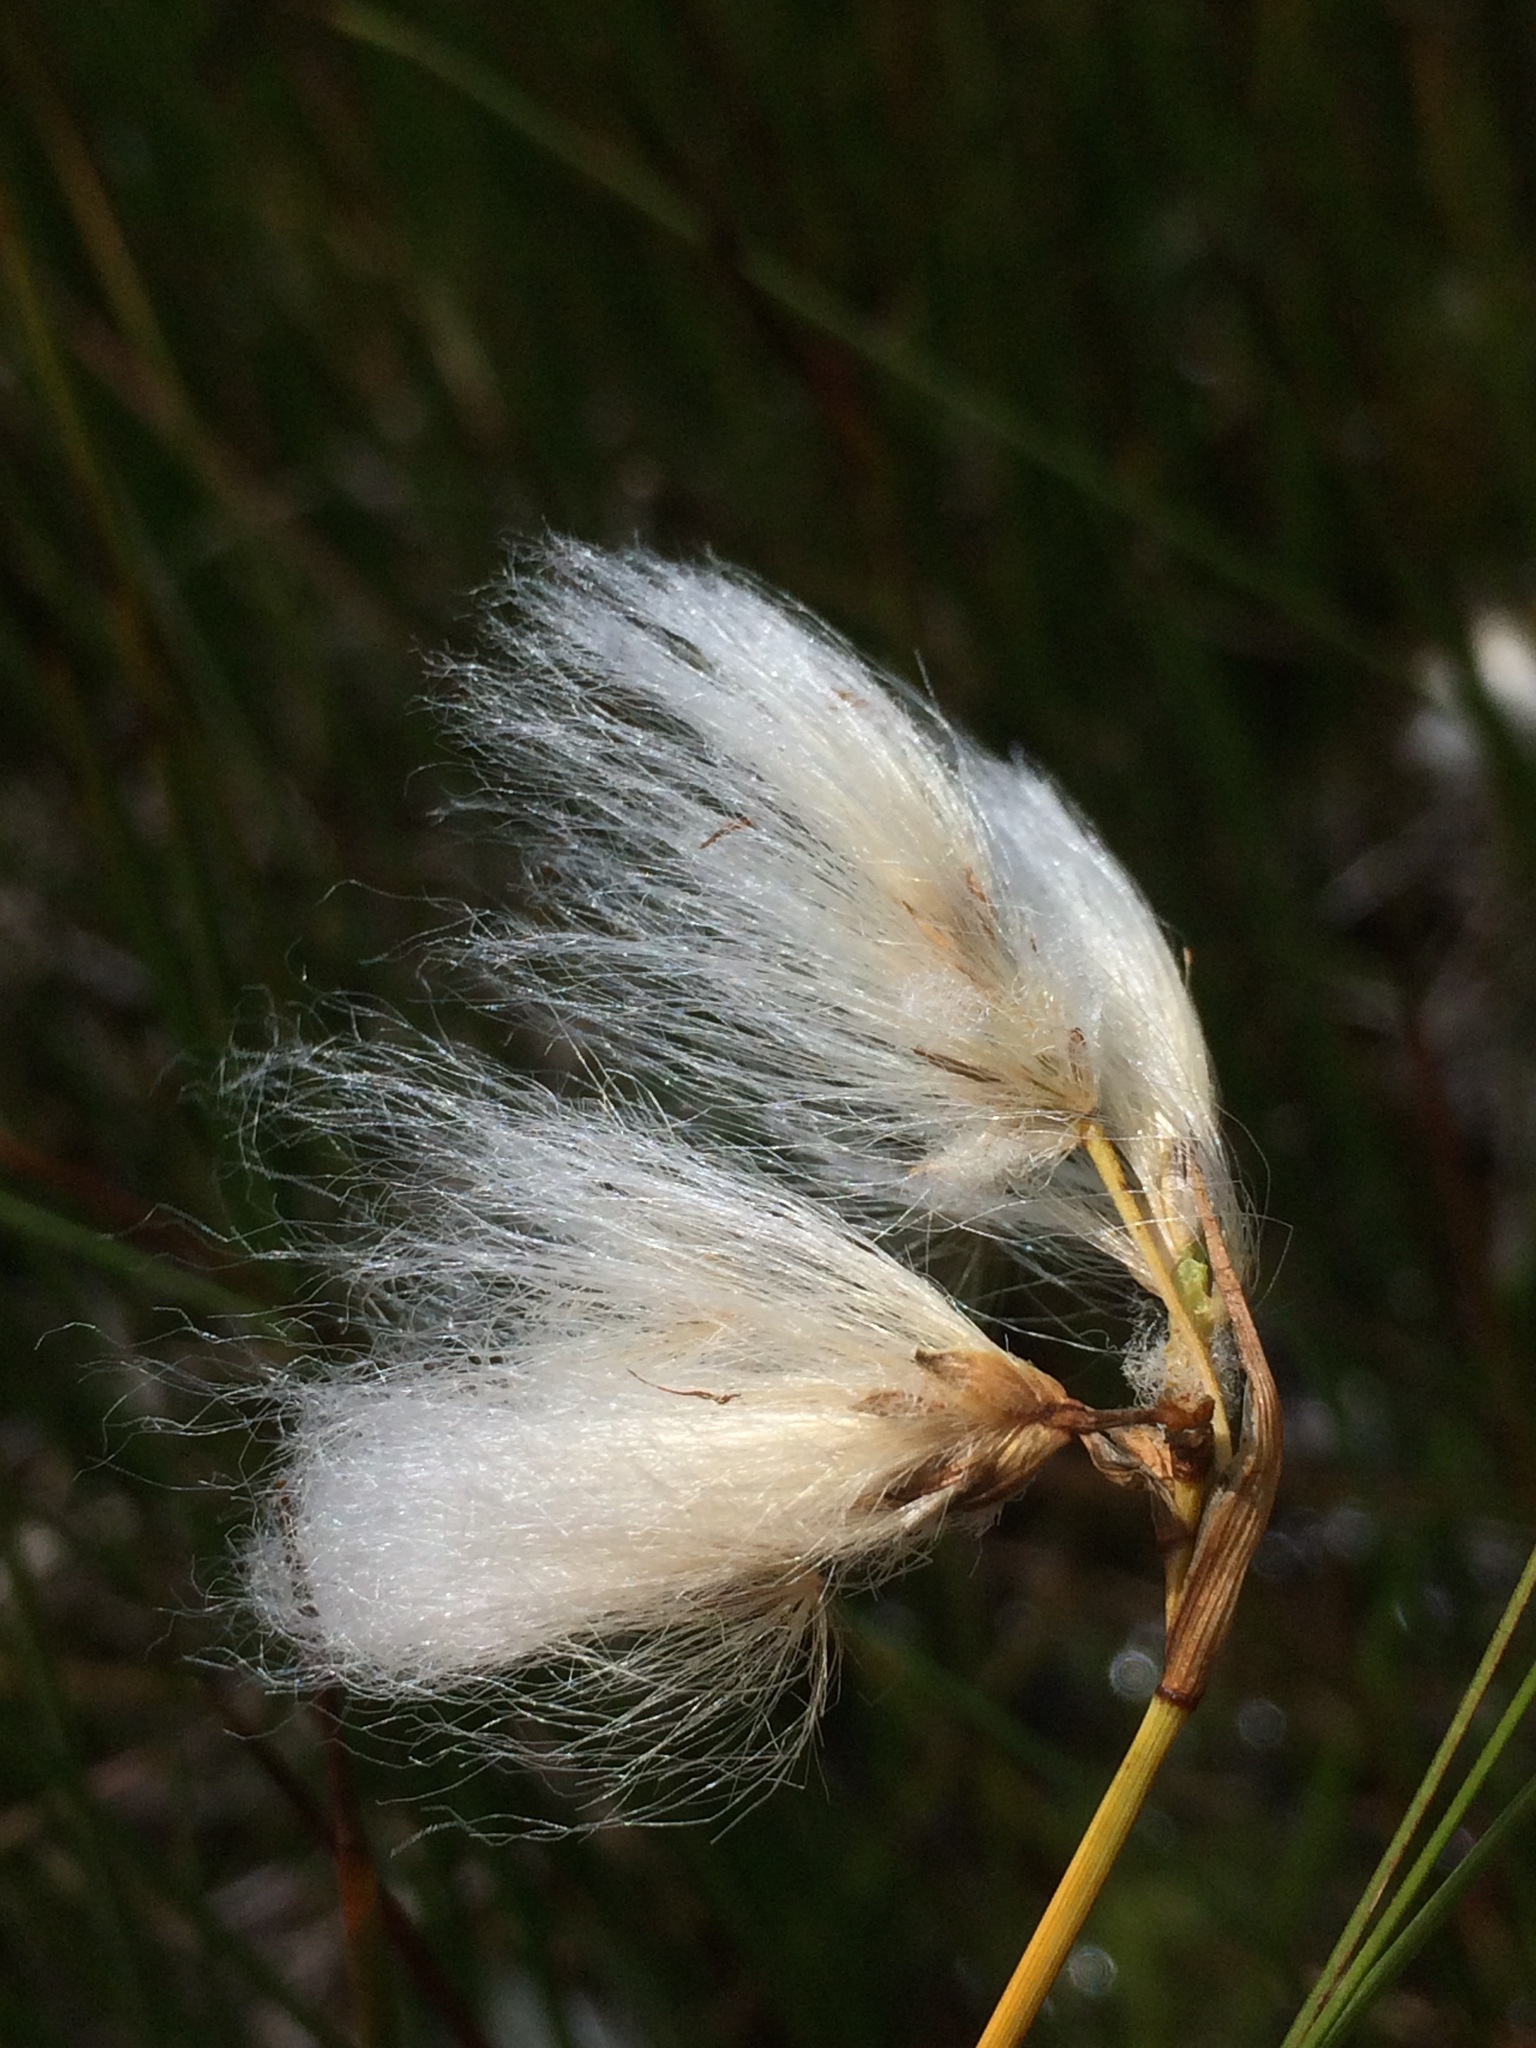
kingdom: Plantae
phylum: Tracheophyta
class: Liliopsida
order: Poales
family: Cyperaceae
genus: Eriophorum
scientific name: Eriophorum angustifolium
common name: Common cottongrass
